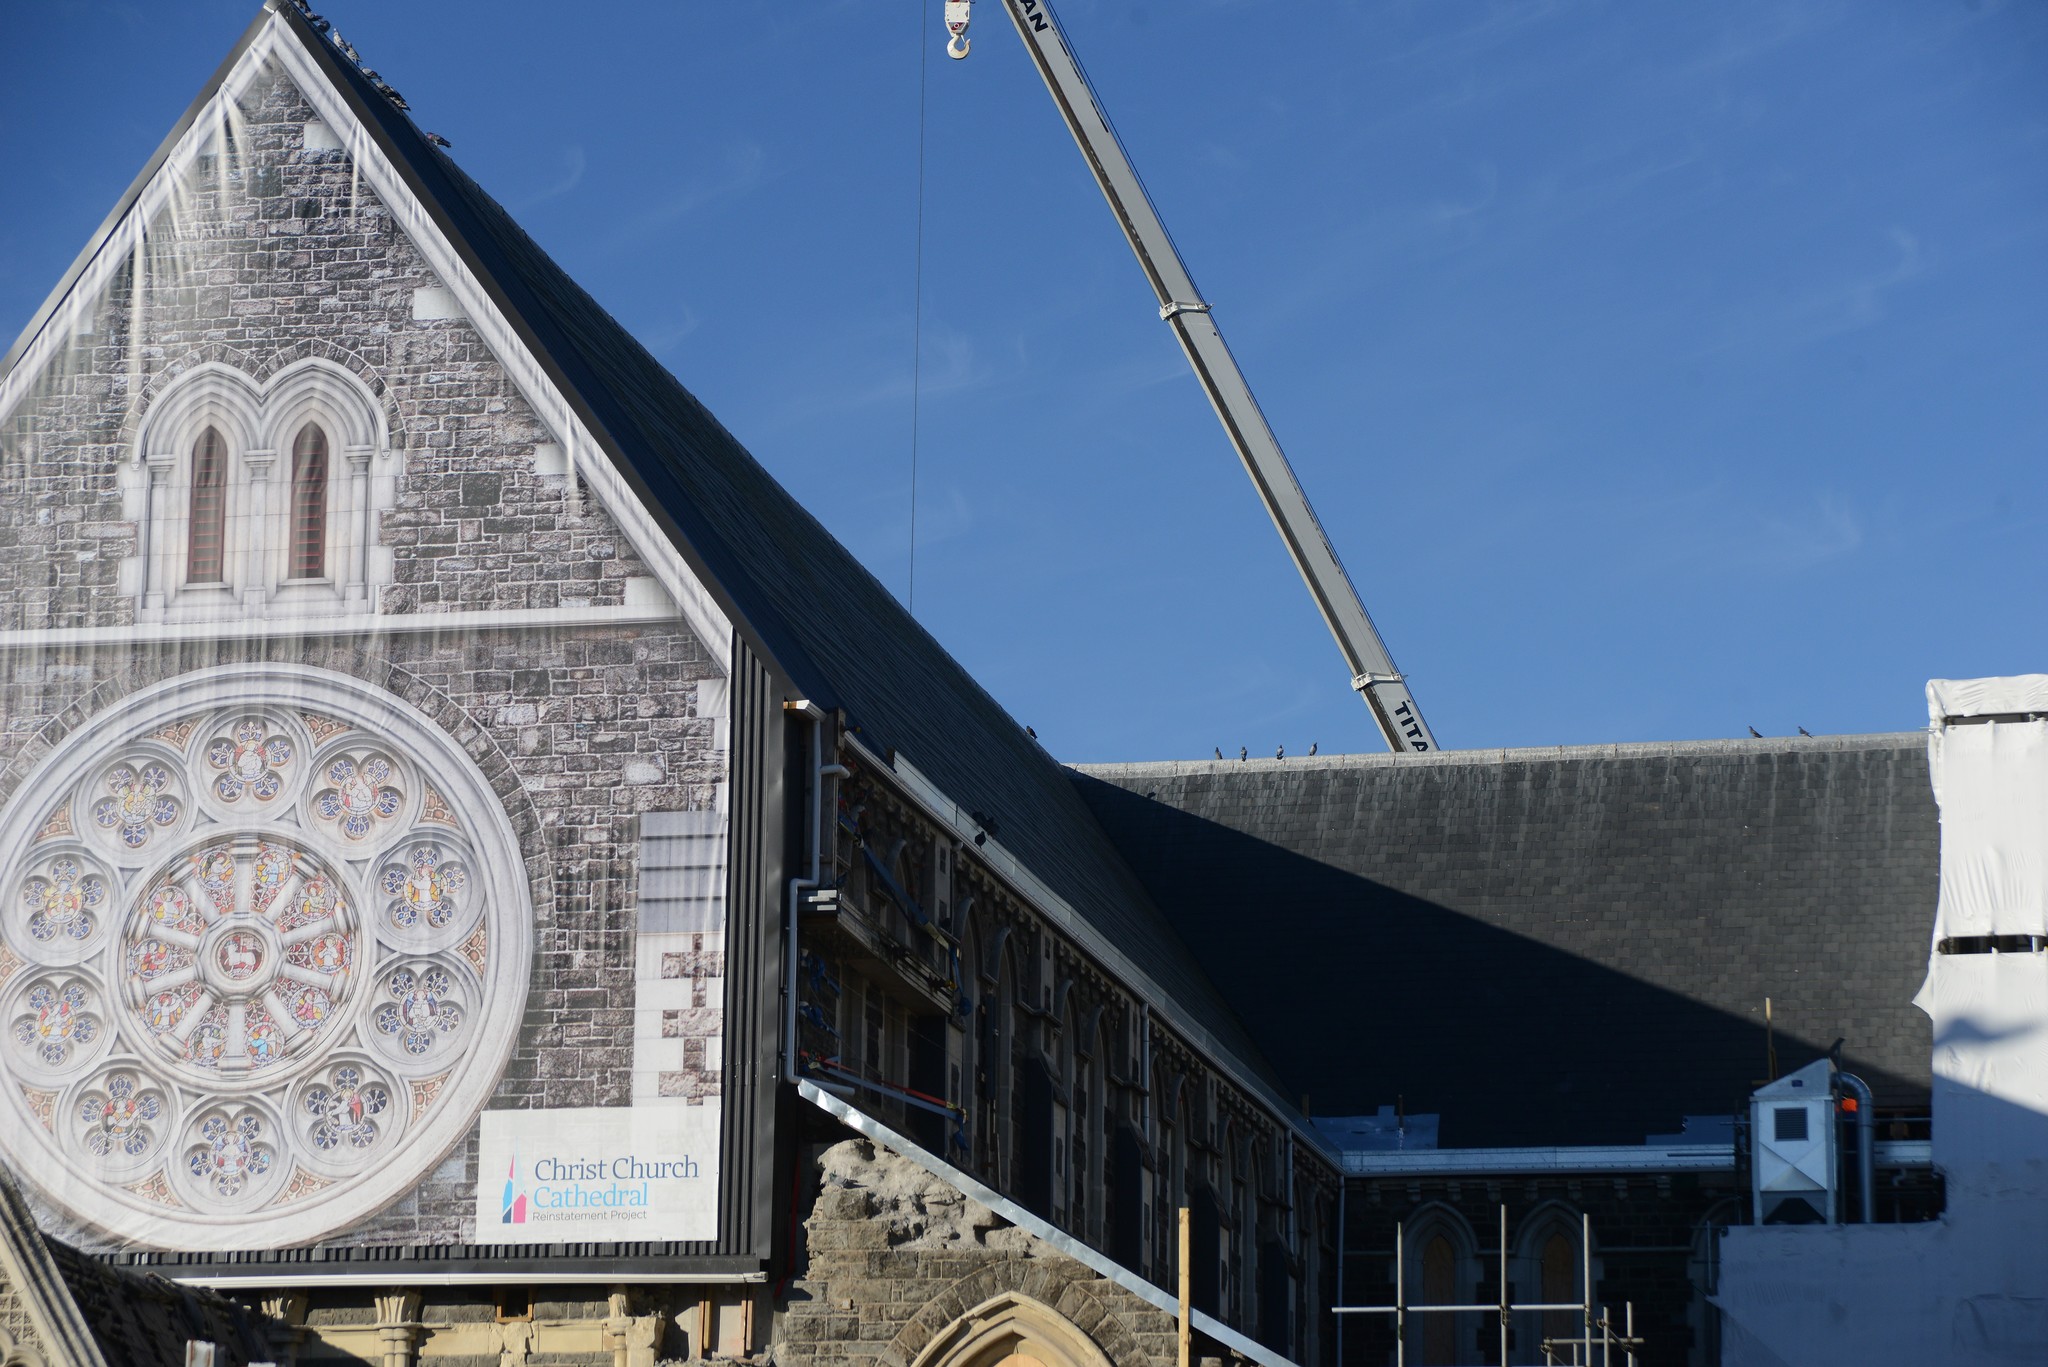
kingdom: Animalia
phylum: Chordata
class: Aves
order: Columbiformes
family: Columbidae
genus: Columba
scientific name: Columba livia
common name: Rock pigeon
